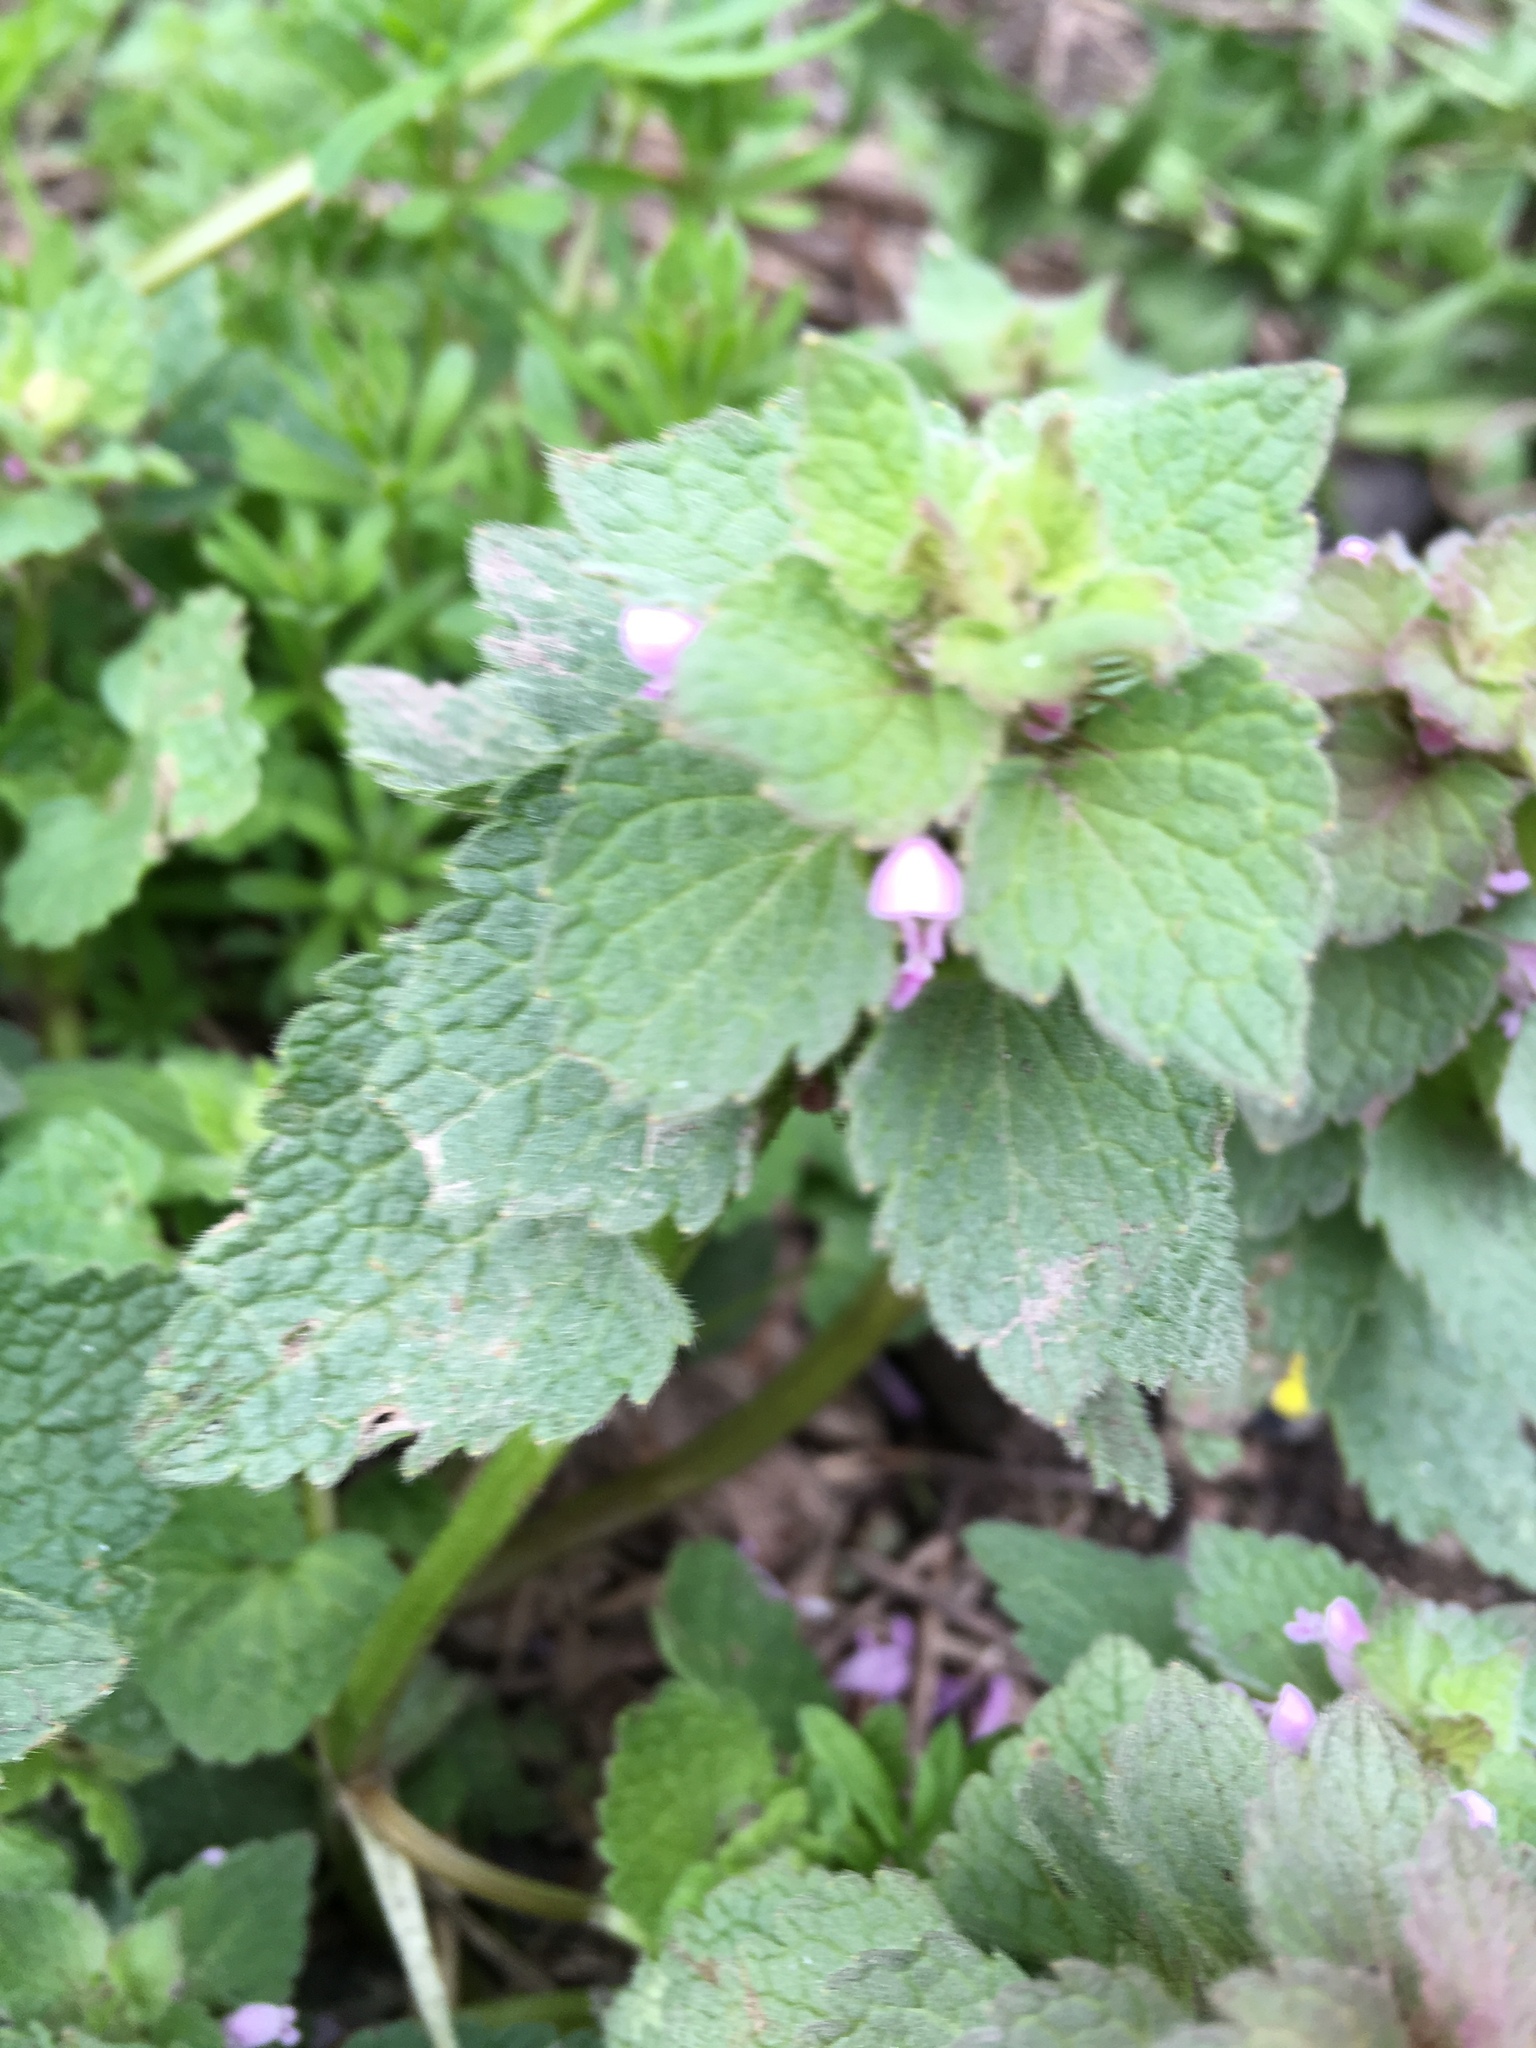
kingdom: Plantae
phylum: Tracheophyta
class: Magnoliopsida
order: Lamiales
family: Lamiaceae
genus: Lamium
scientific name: Lamium purpureum
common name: Red dead-nettle
